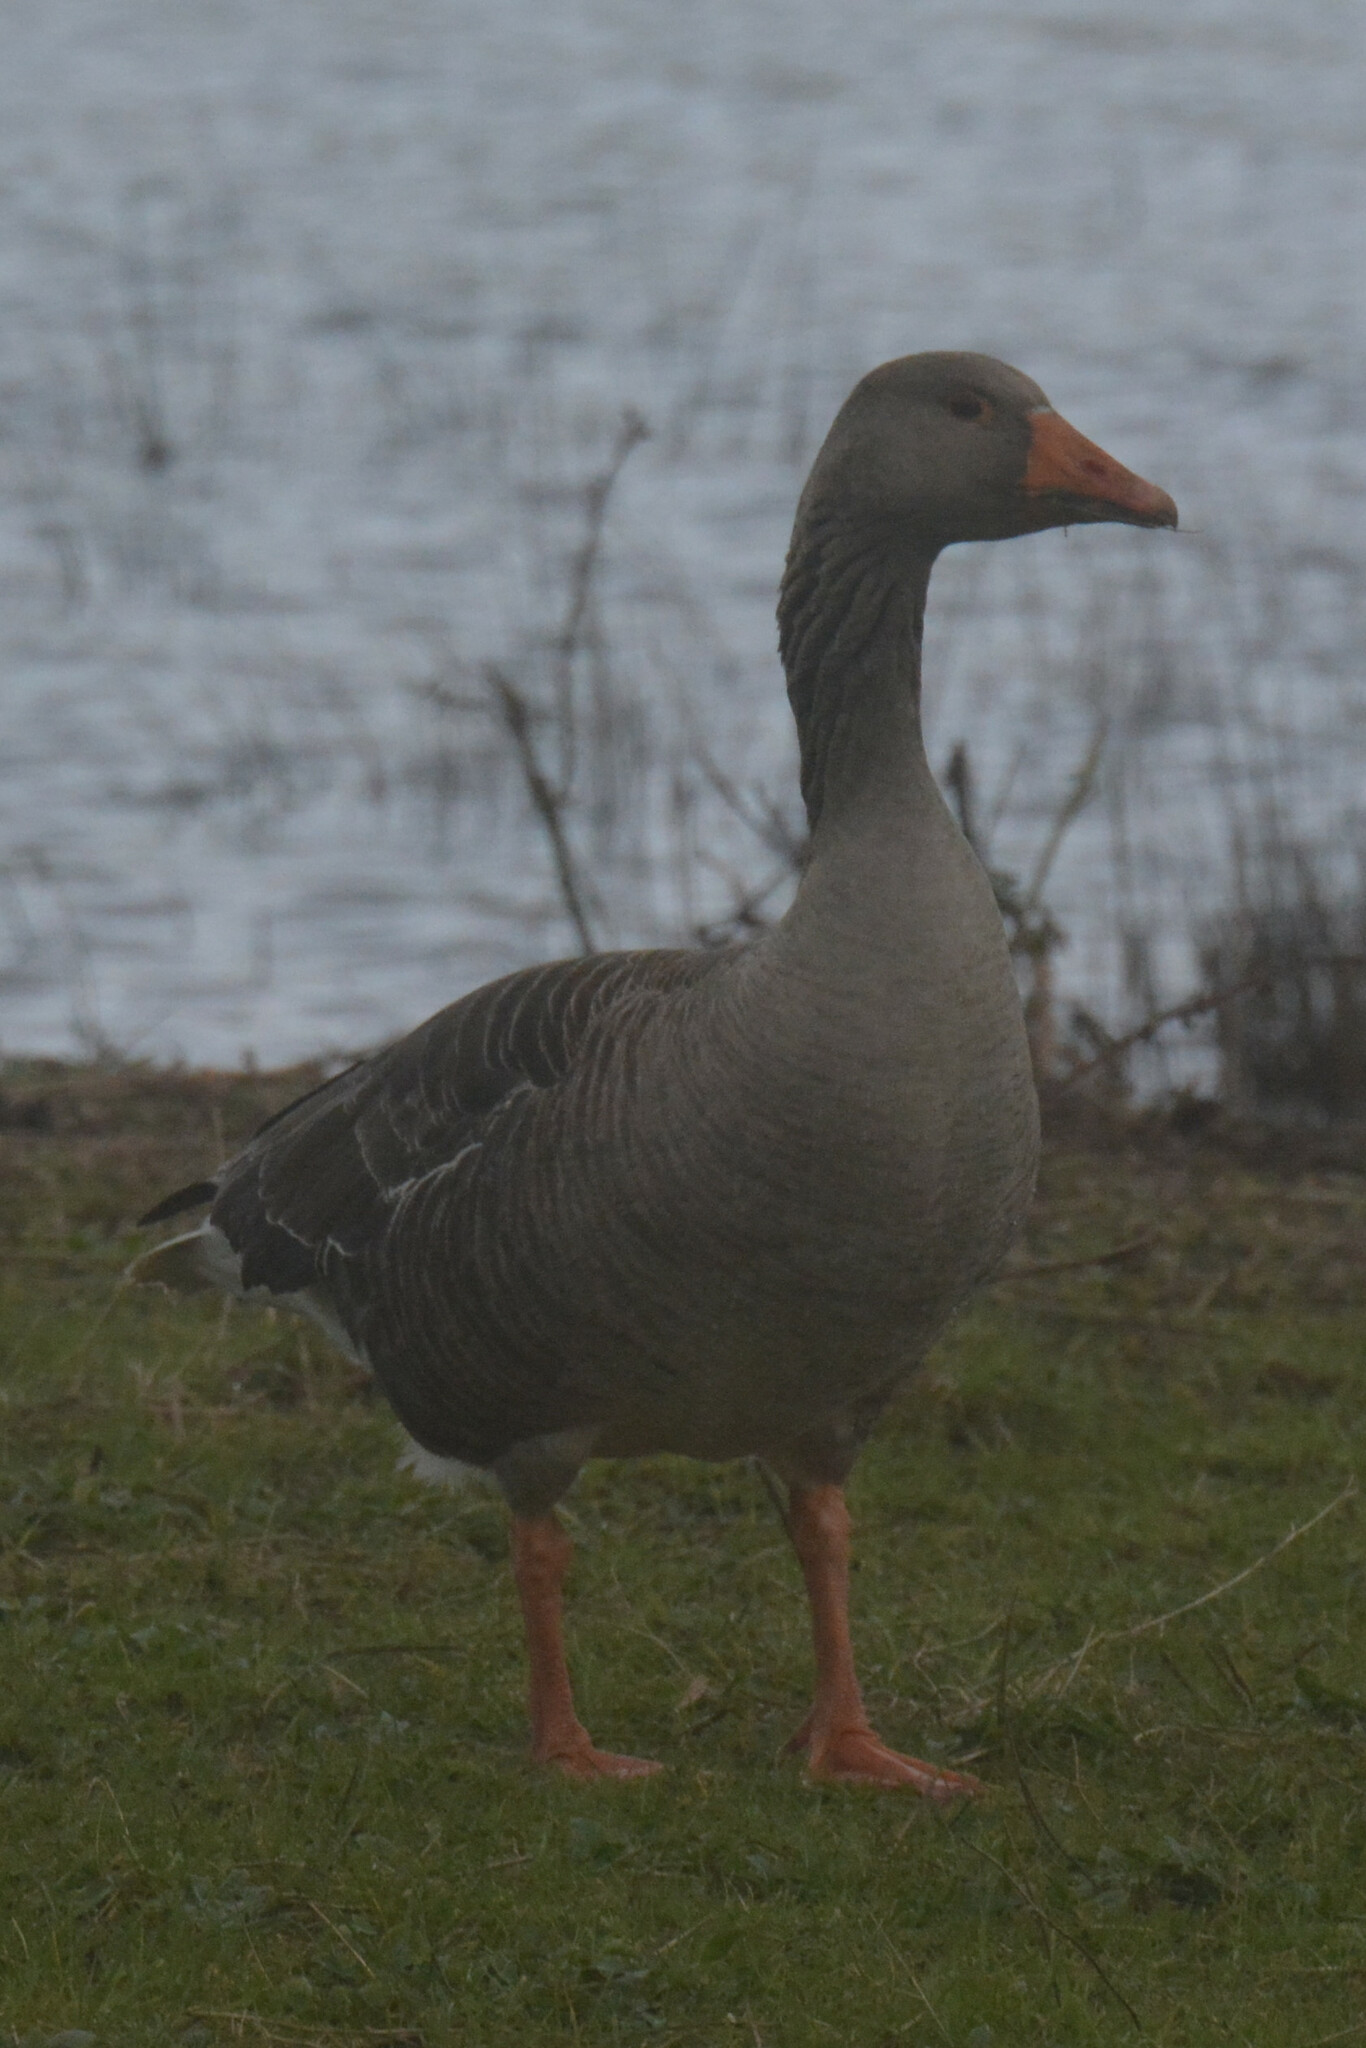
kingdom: Animalia
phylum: Chordata
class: Aves
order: Anseriformes
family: Anatidae
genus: Anser
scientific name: Anser anser
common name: Greylag goose
